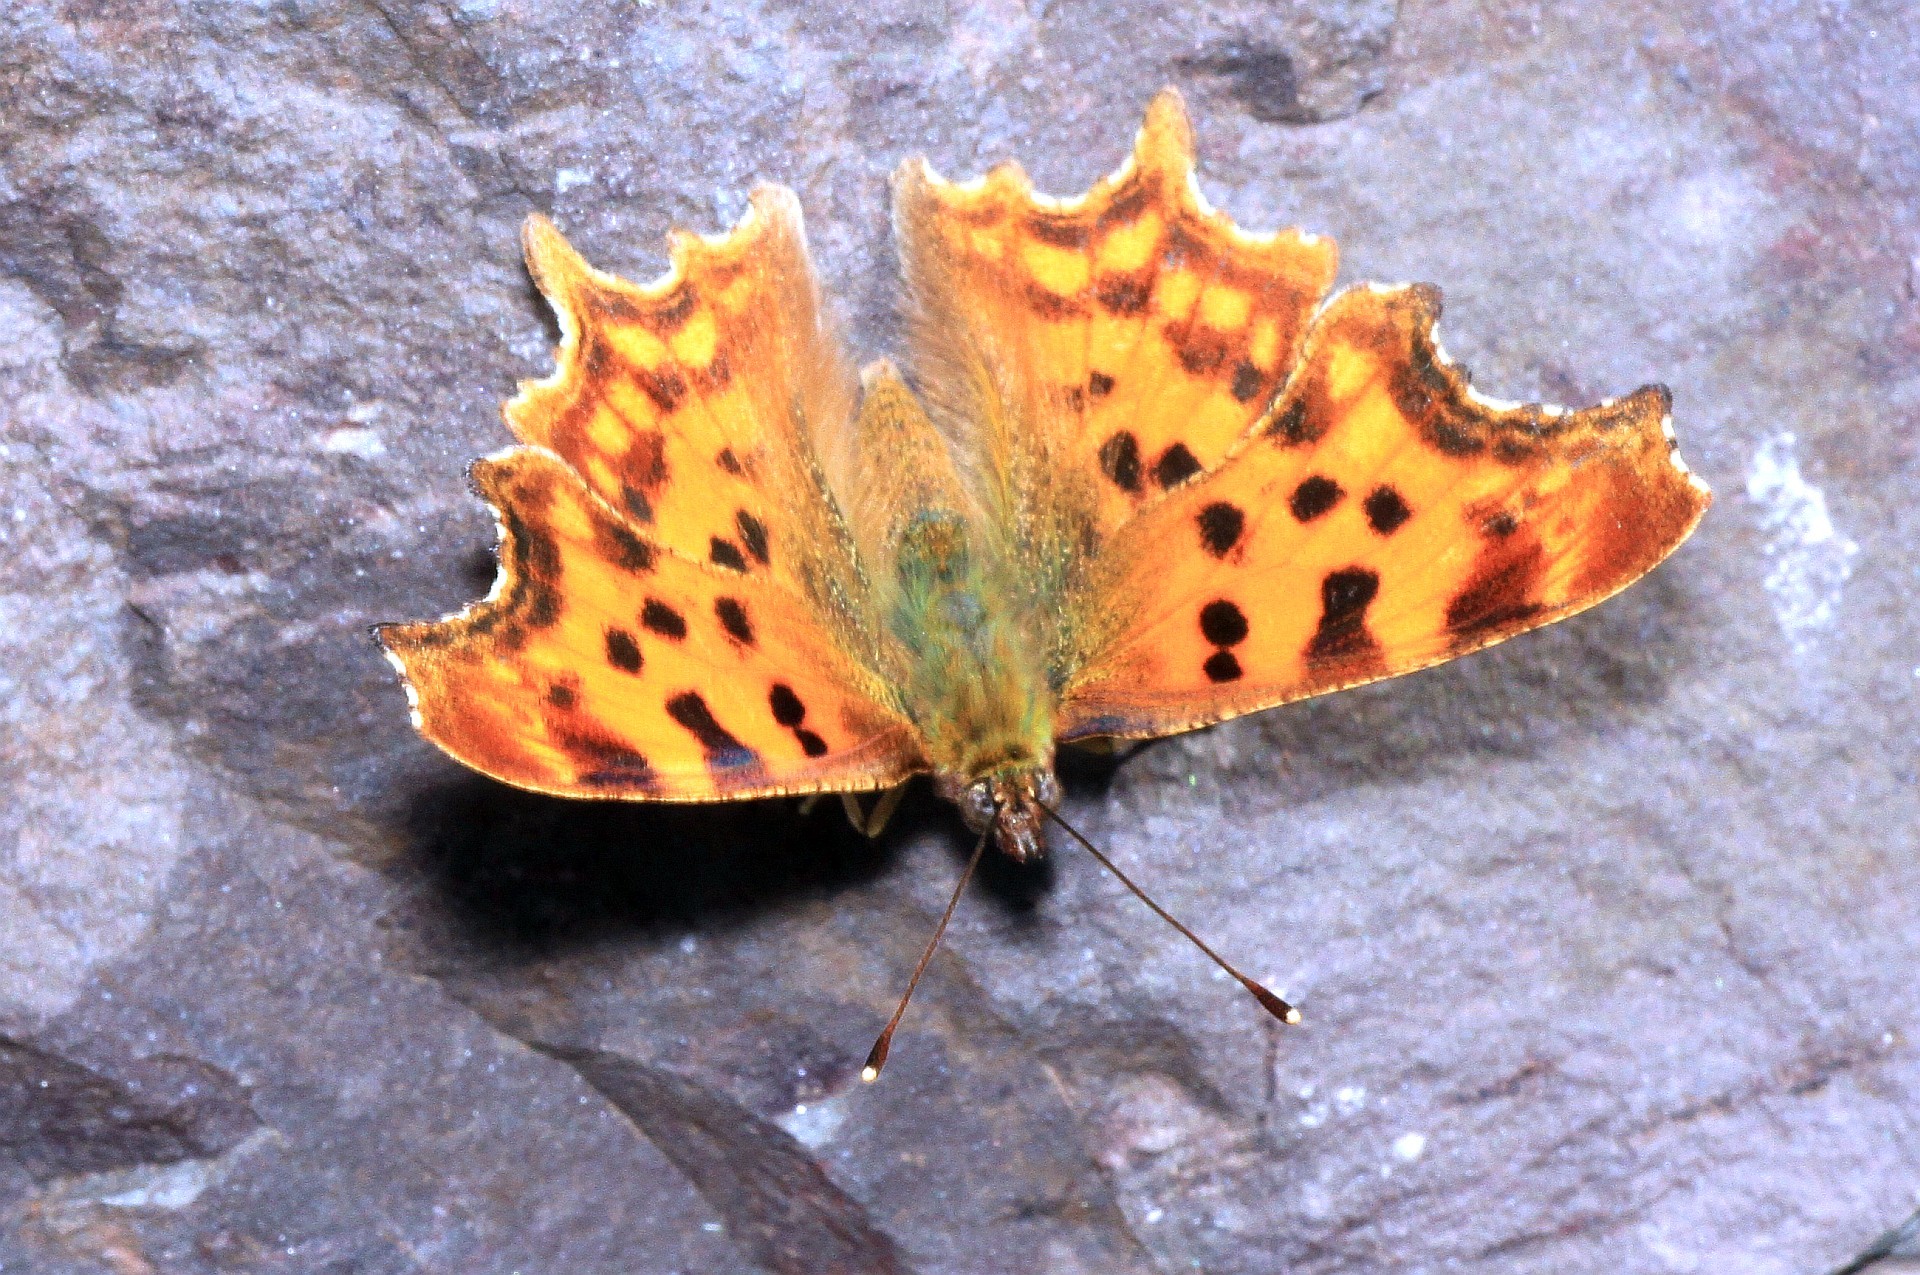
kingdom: Animalia
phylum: Arthropoda
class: Insecta
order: Lepidoptera
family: Nymphalidae
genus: Polygonia
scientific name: Polygonia c-album
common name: Comma
